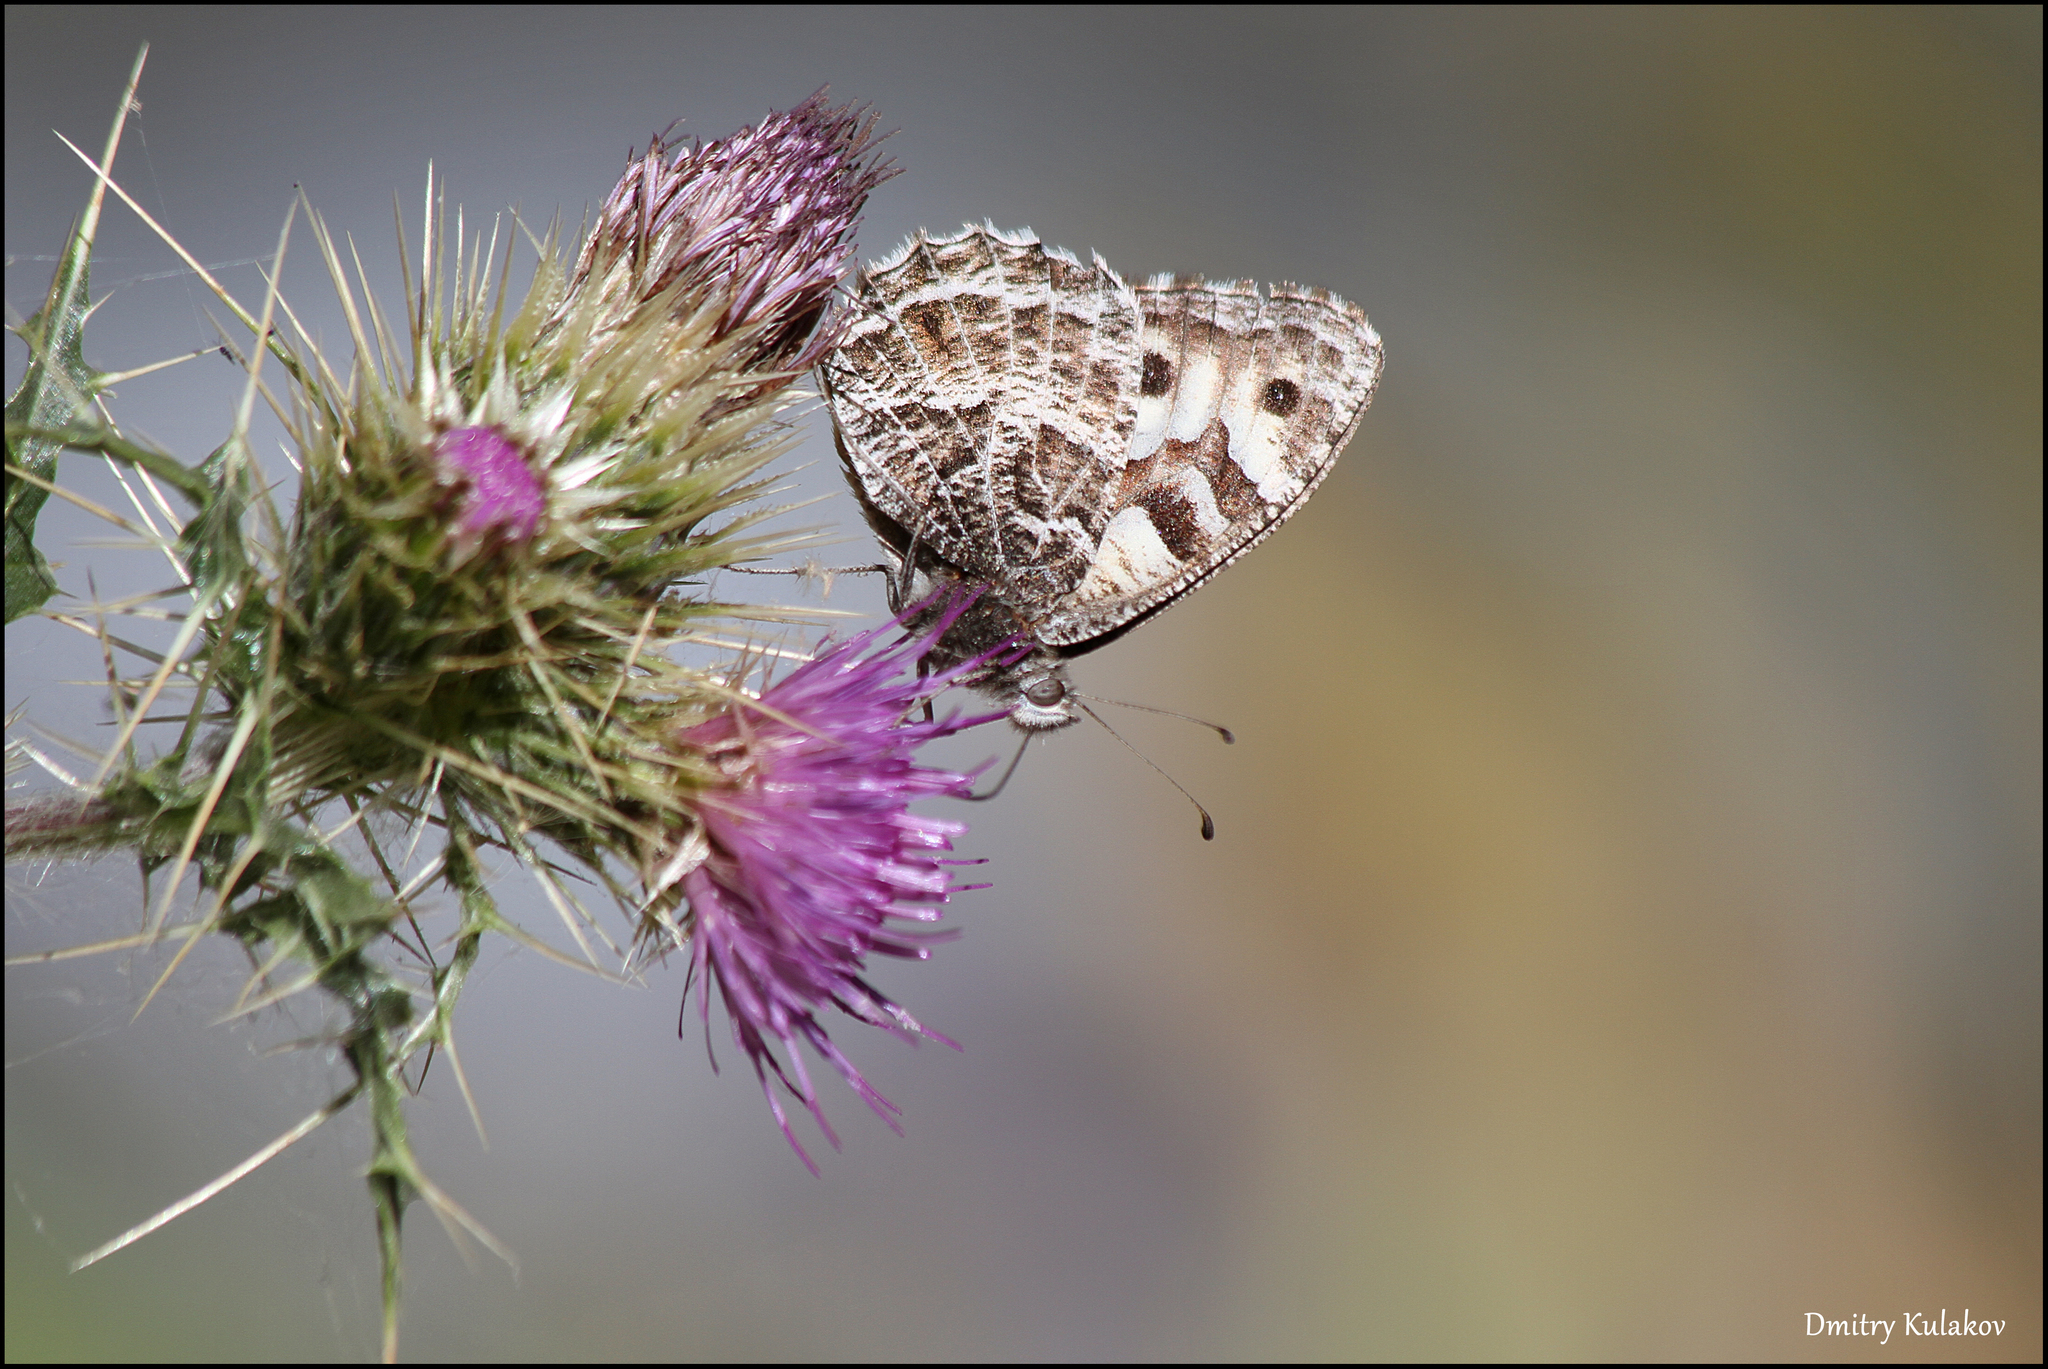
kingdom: Animalia
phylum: Arthropoda
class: Insecta
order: Lepidoptera
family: Nymphalidae
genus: Satyrus
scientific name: Satyrus Chazara heydenreichi
